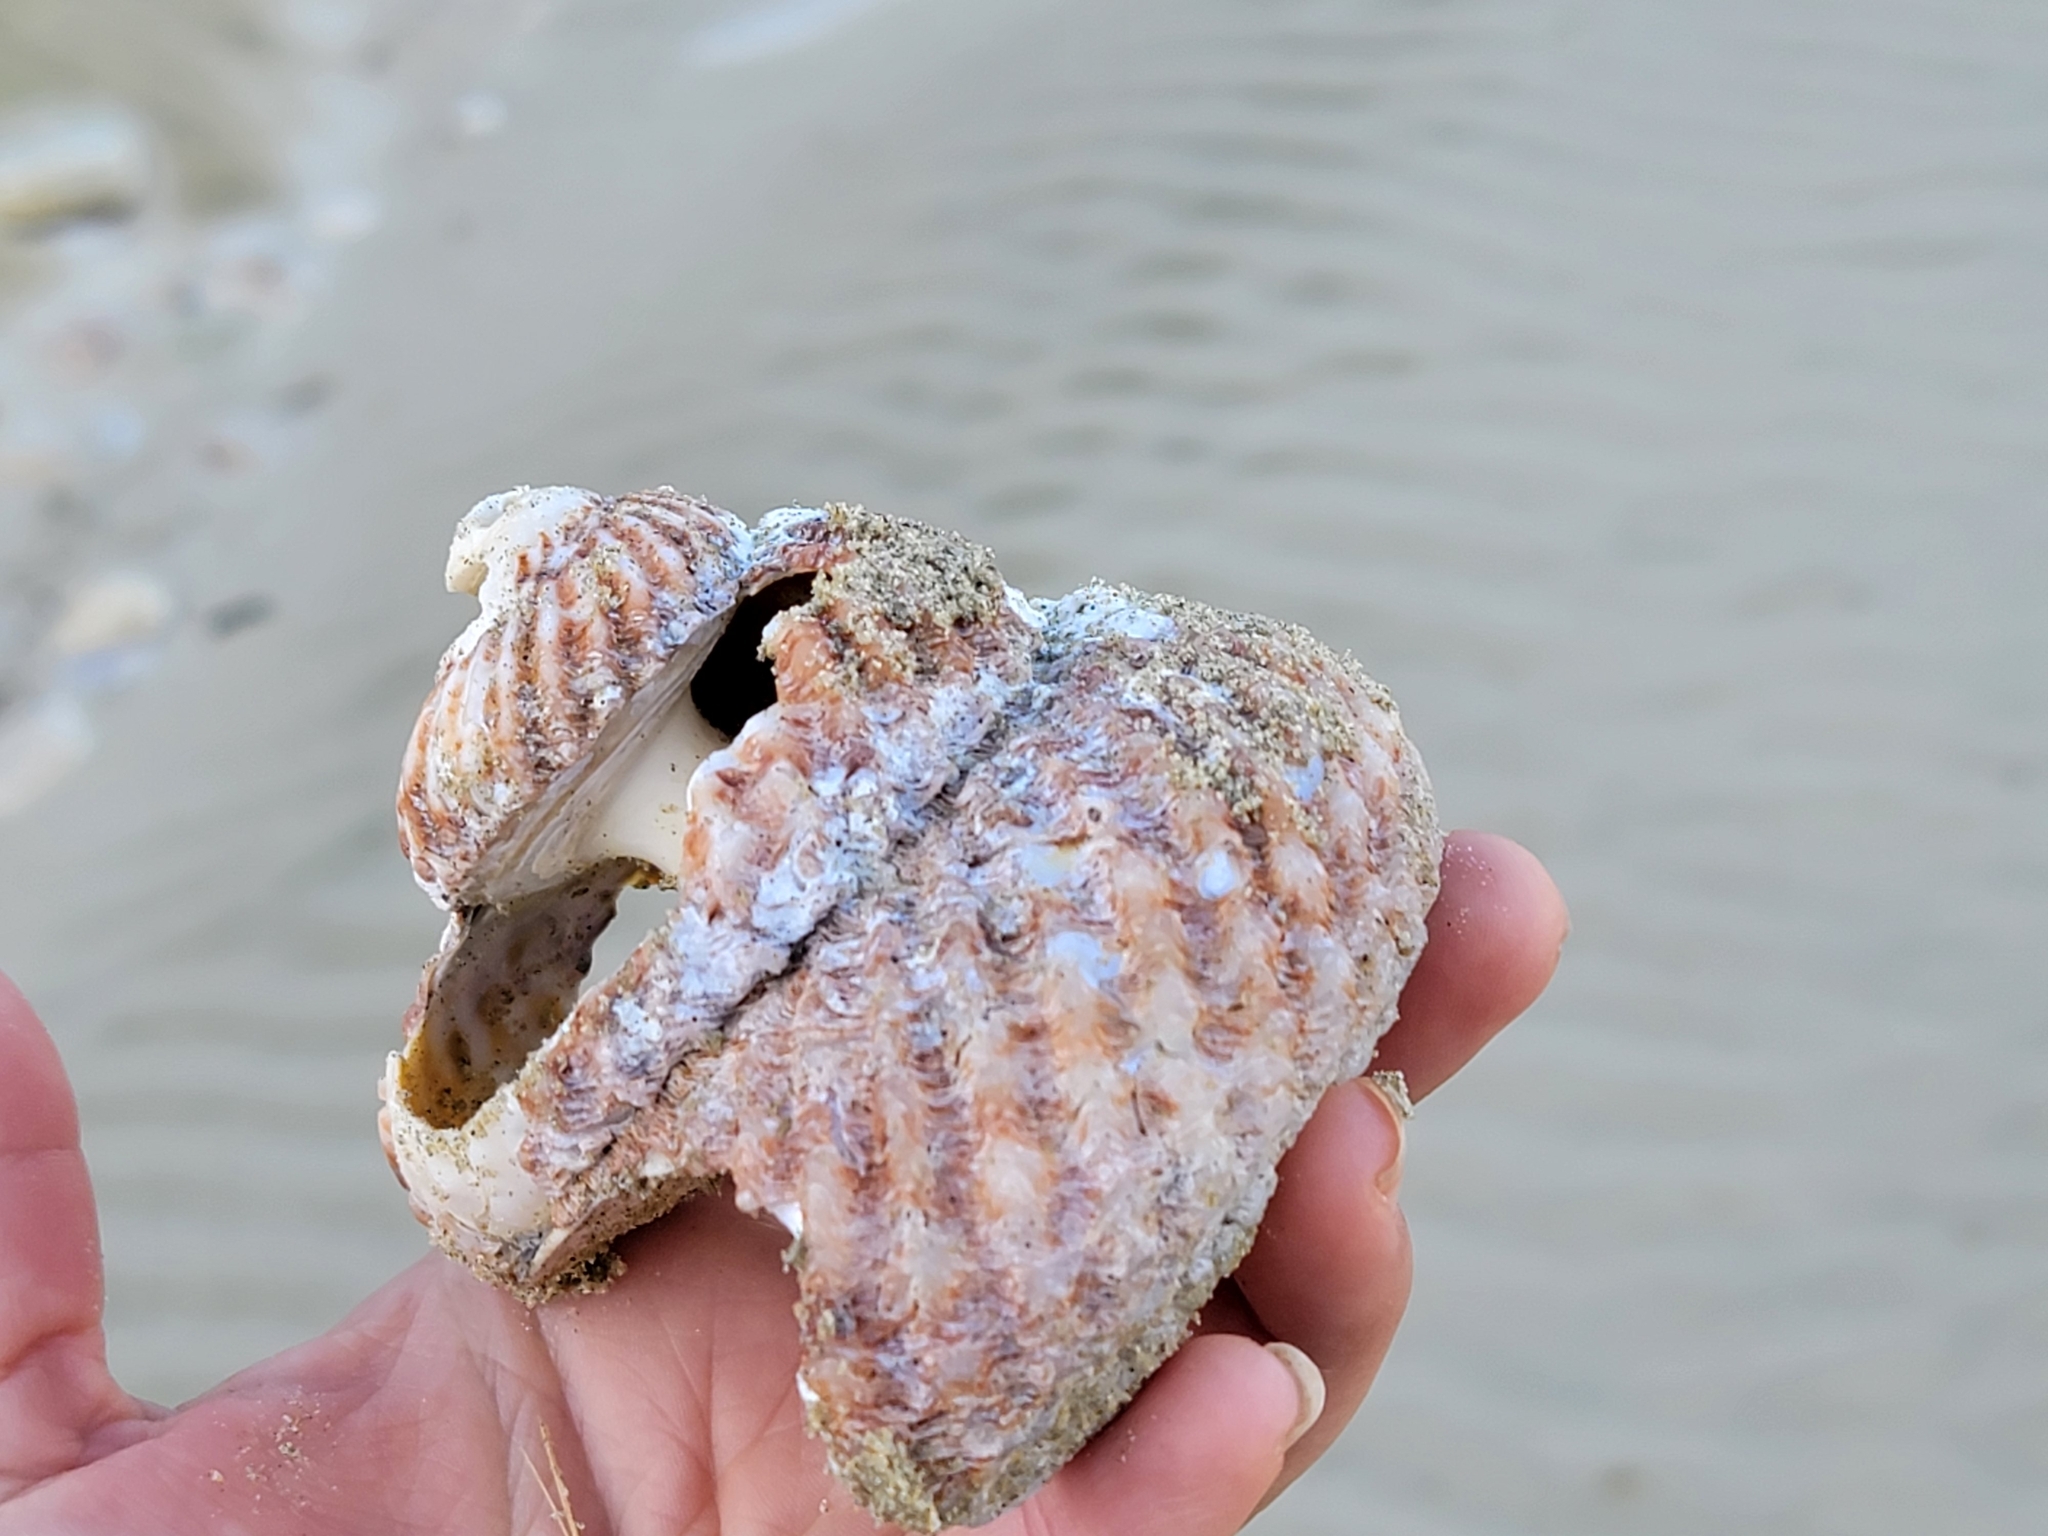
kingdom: Animalia
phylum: Mollusca
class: Gastropoda
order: Trochida
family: Turbinidae
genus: Cookia
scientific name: Cookia sulcata
